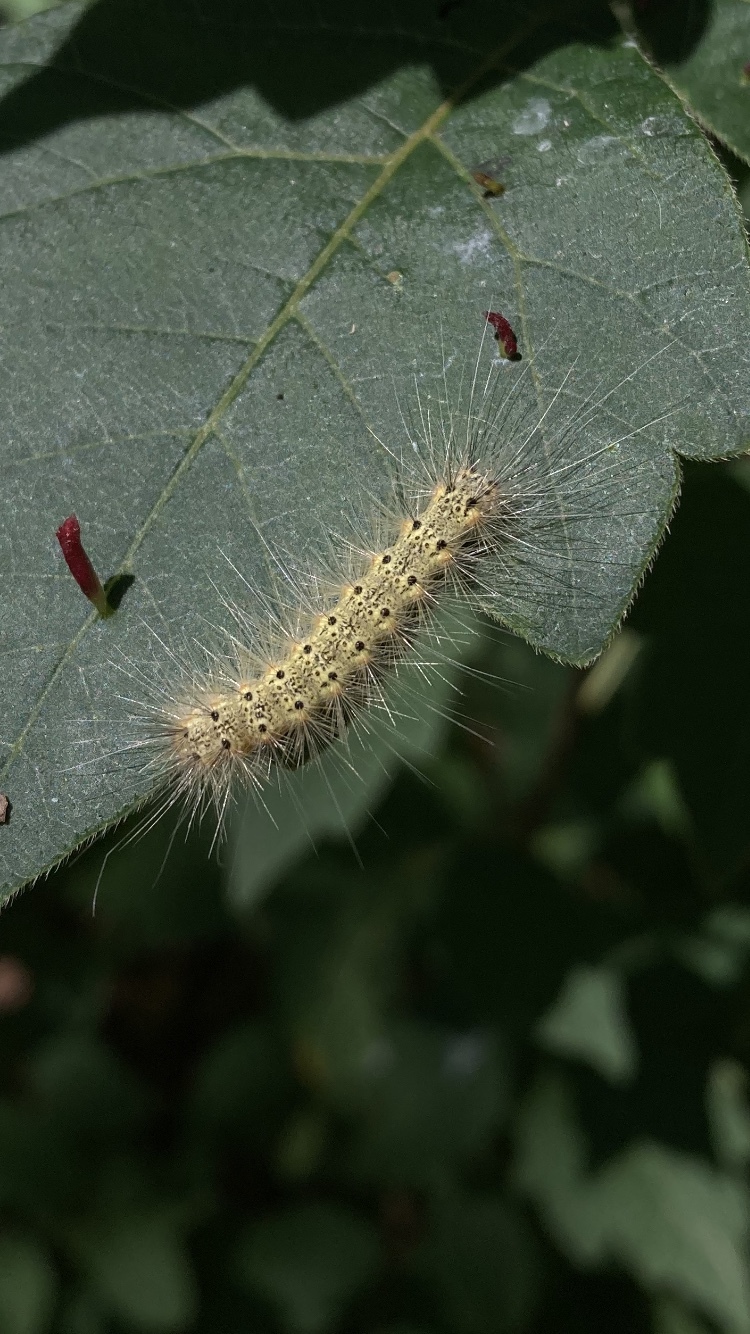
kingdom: Animalia
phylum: Arthropoda
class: Insecta
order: Lepidoptera
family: Erebidae
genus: Hyphantria
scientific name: Hyphantria cunea
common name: American white moth
